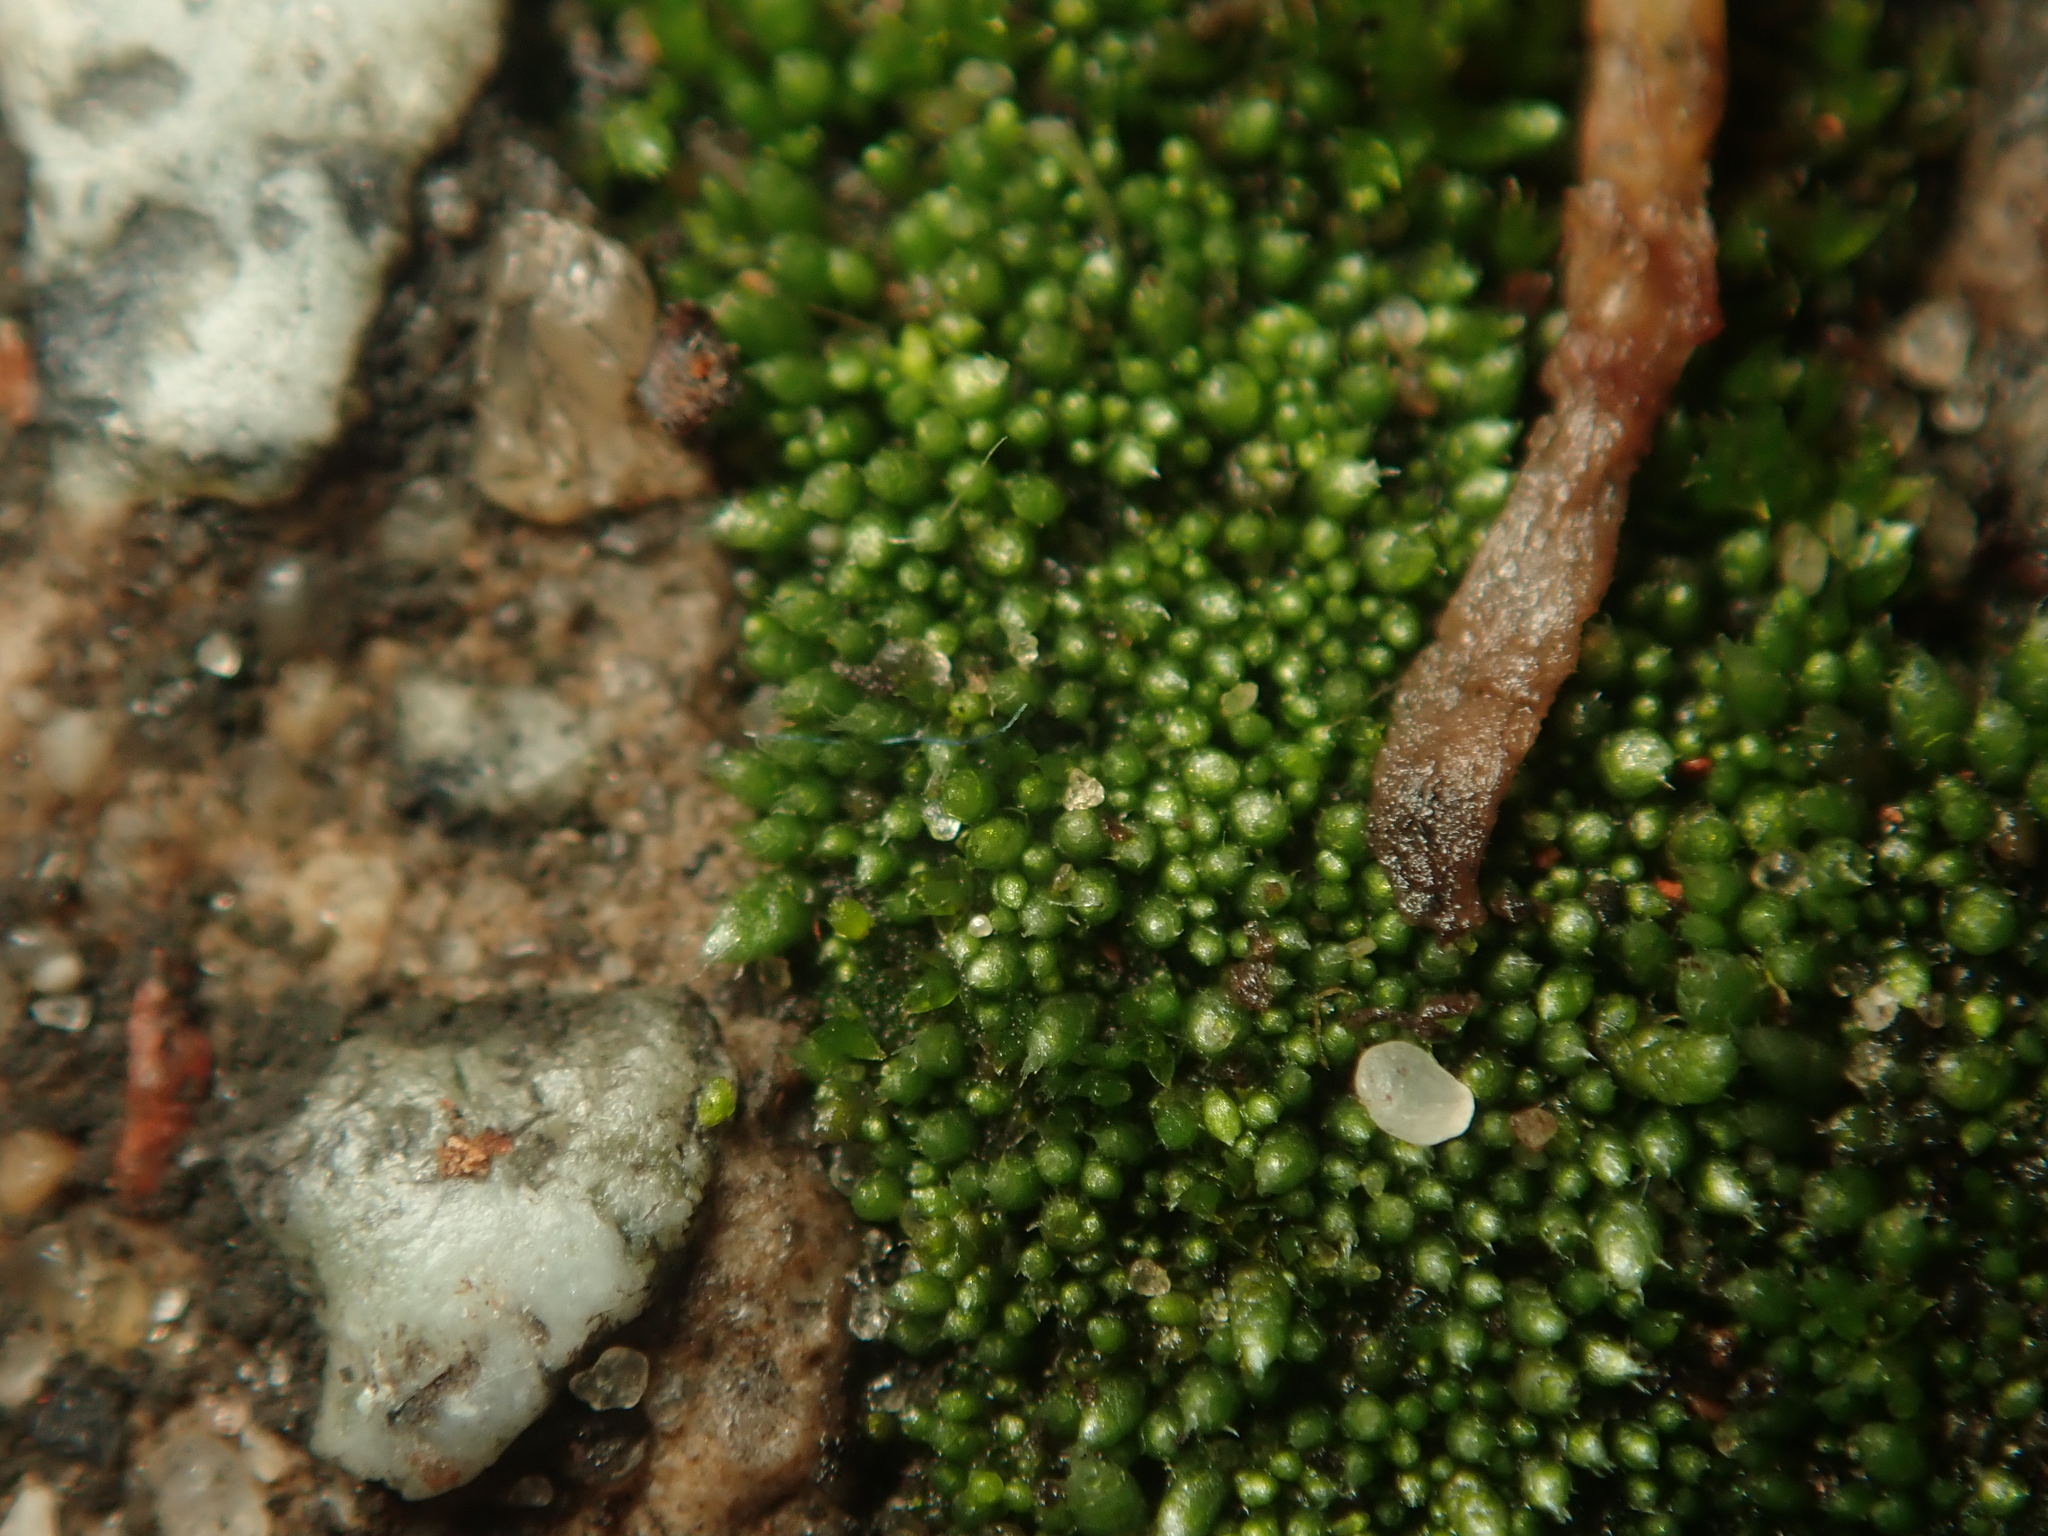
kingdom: Plantae
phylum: Bryophyta
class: Bryopsida
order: Bryales
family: Bryaceae
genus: Bryum
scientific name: Bryum argenteum
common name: Silver-moss
